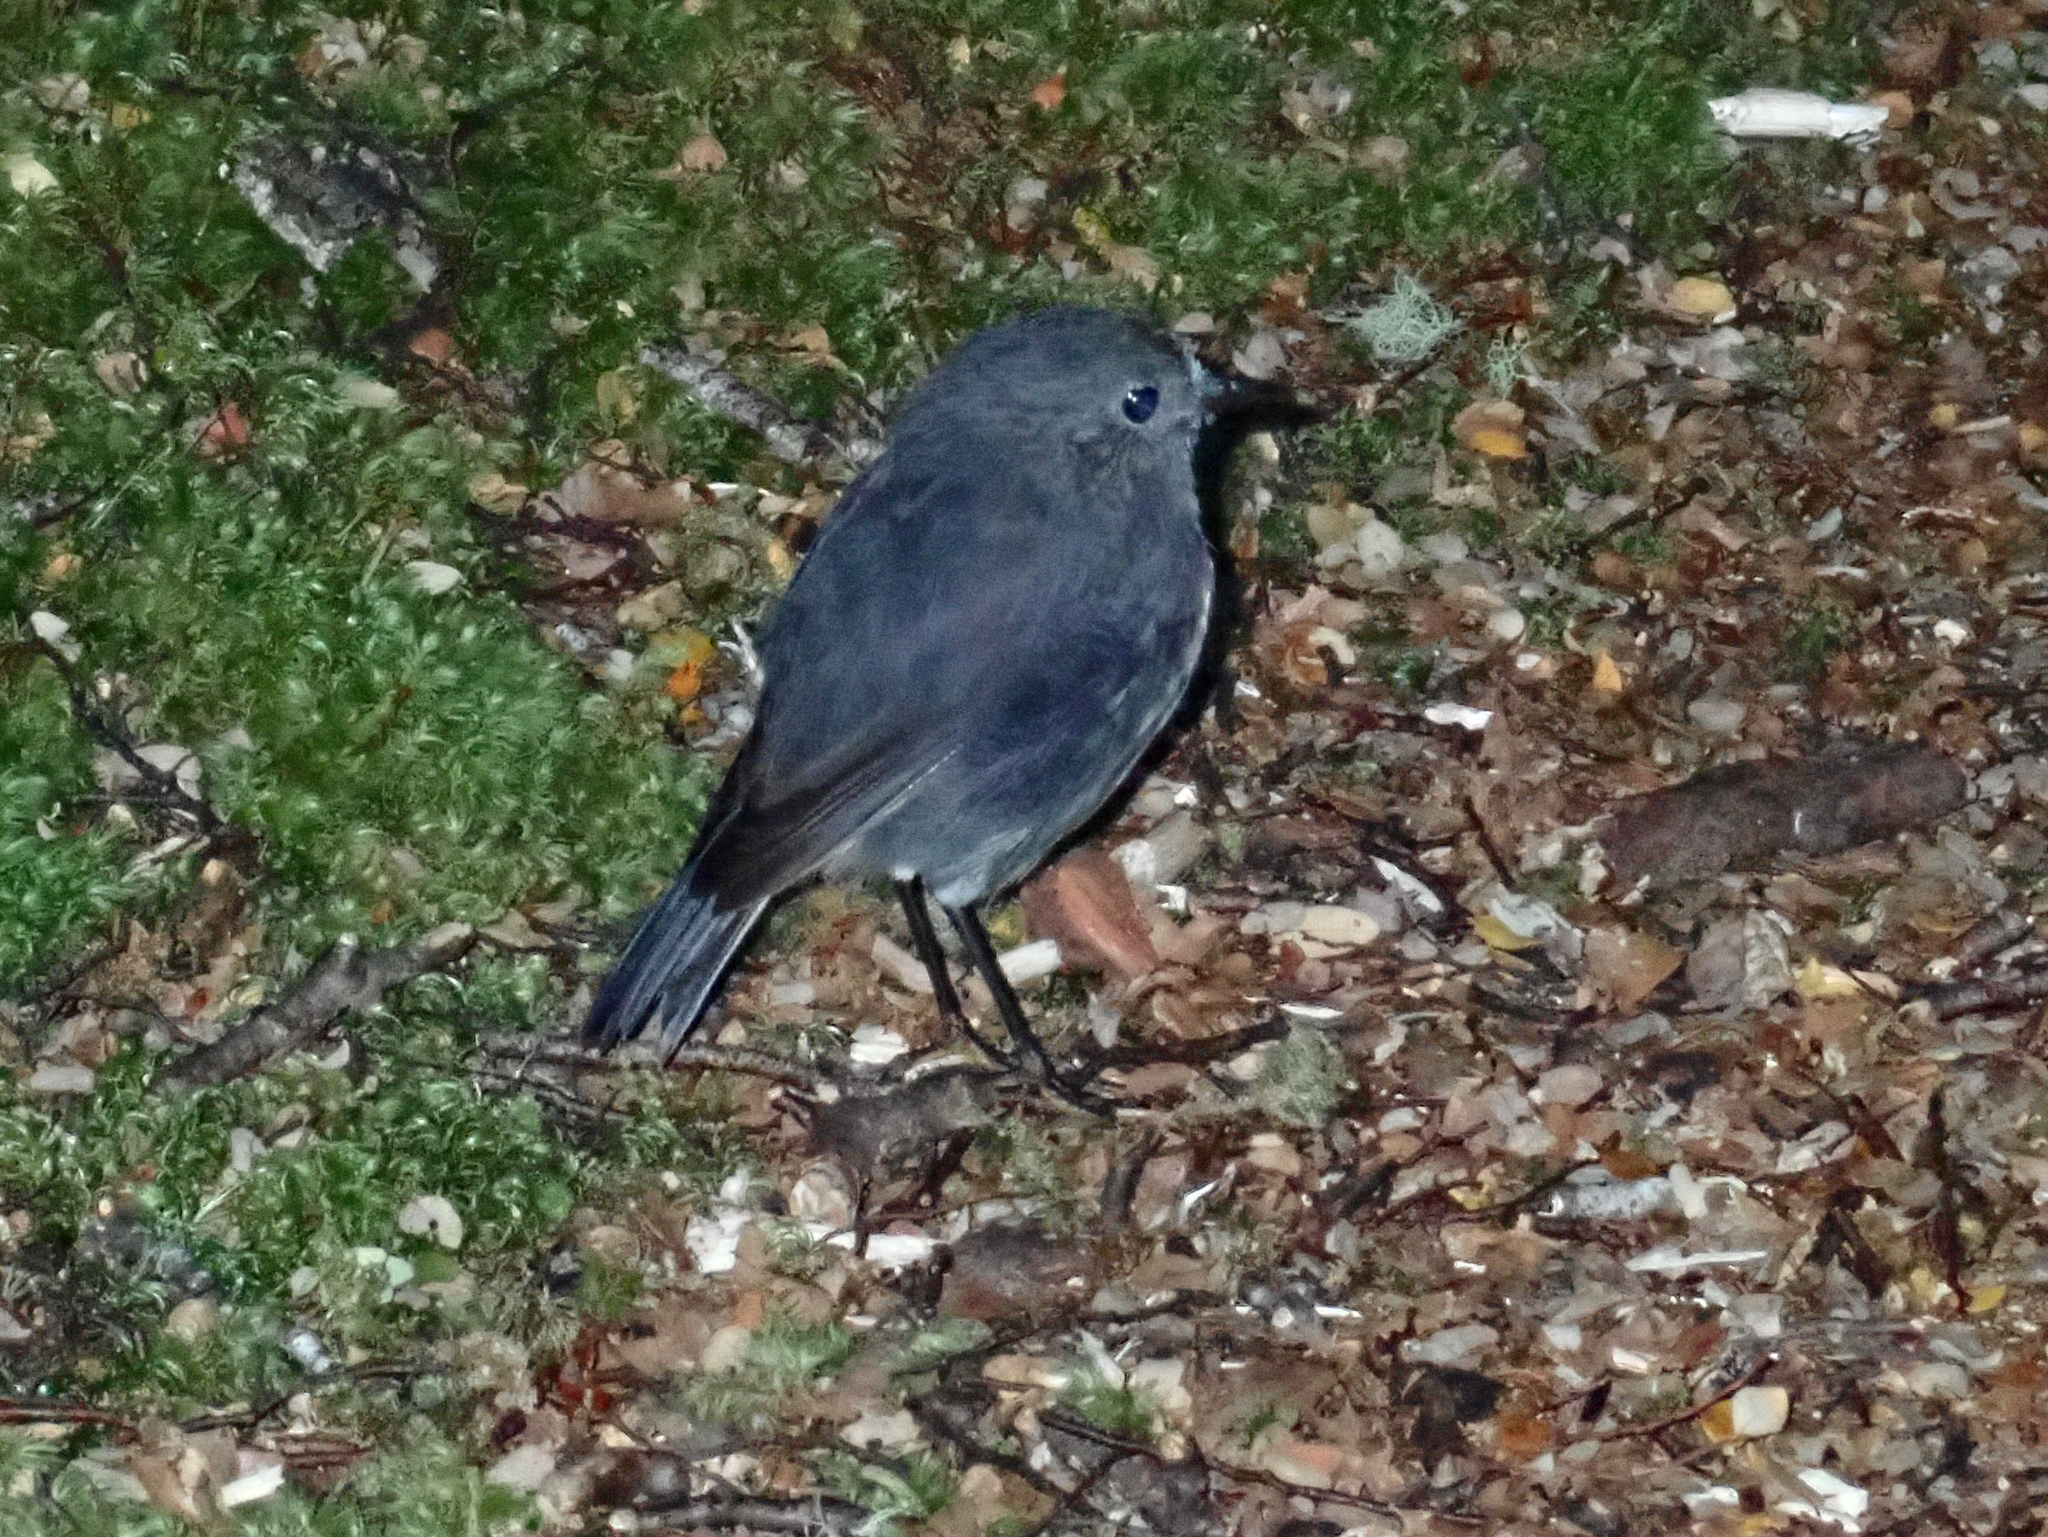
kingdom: Animalia
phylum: Chordata
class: Aves
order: Passeriformes
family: Petroicidae
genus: Petroica
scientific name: Petroica australis
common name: New zealand robin
